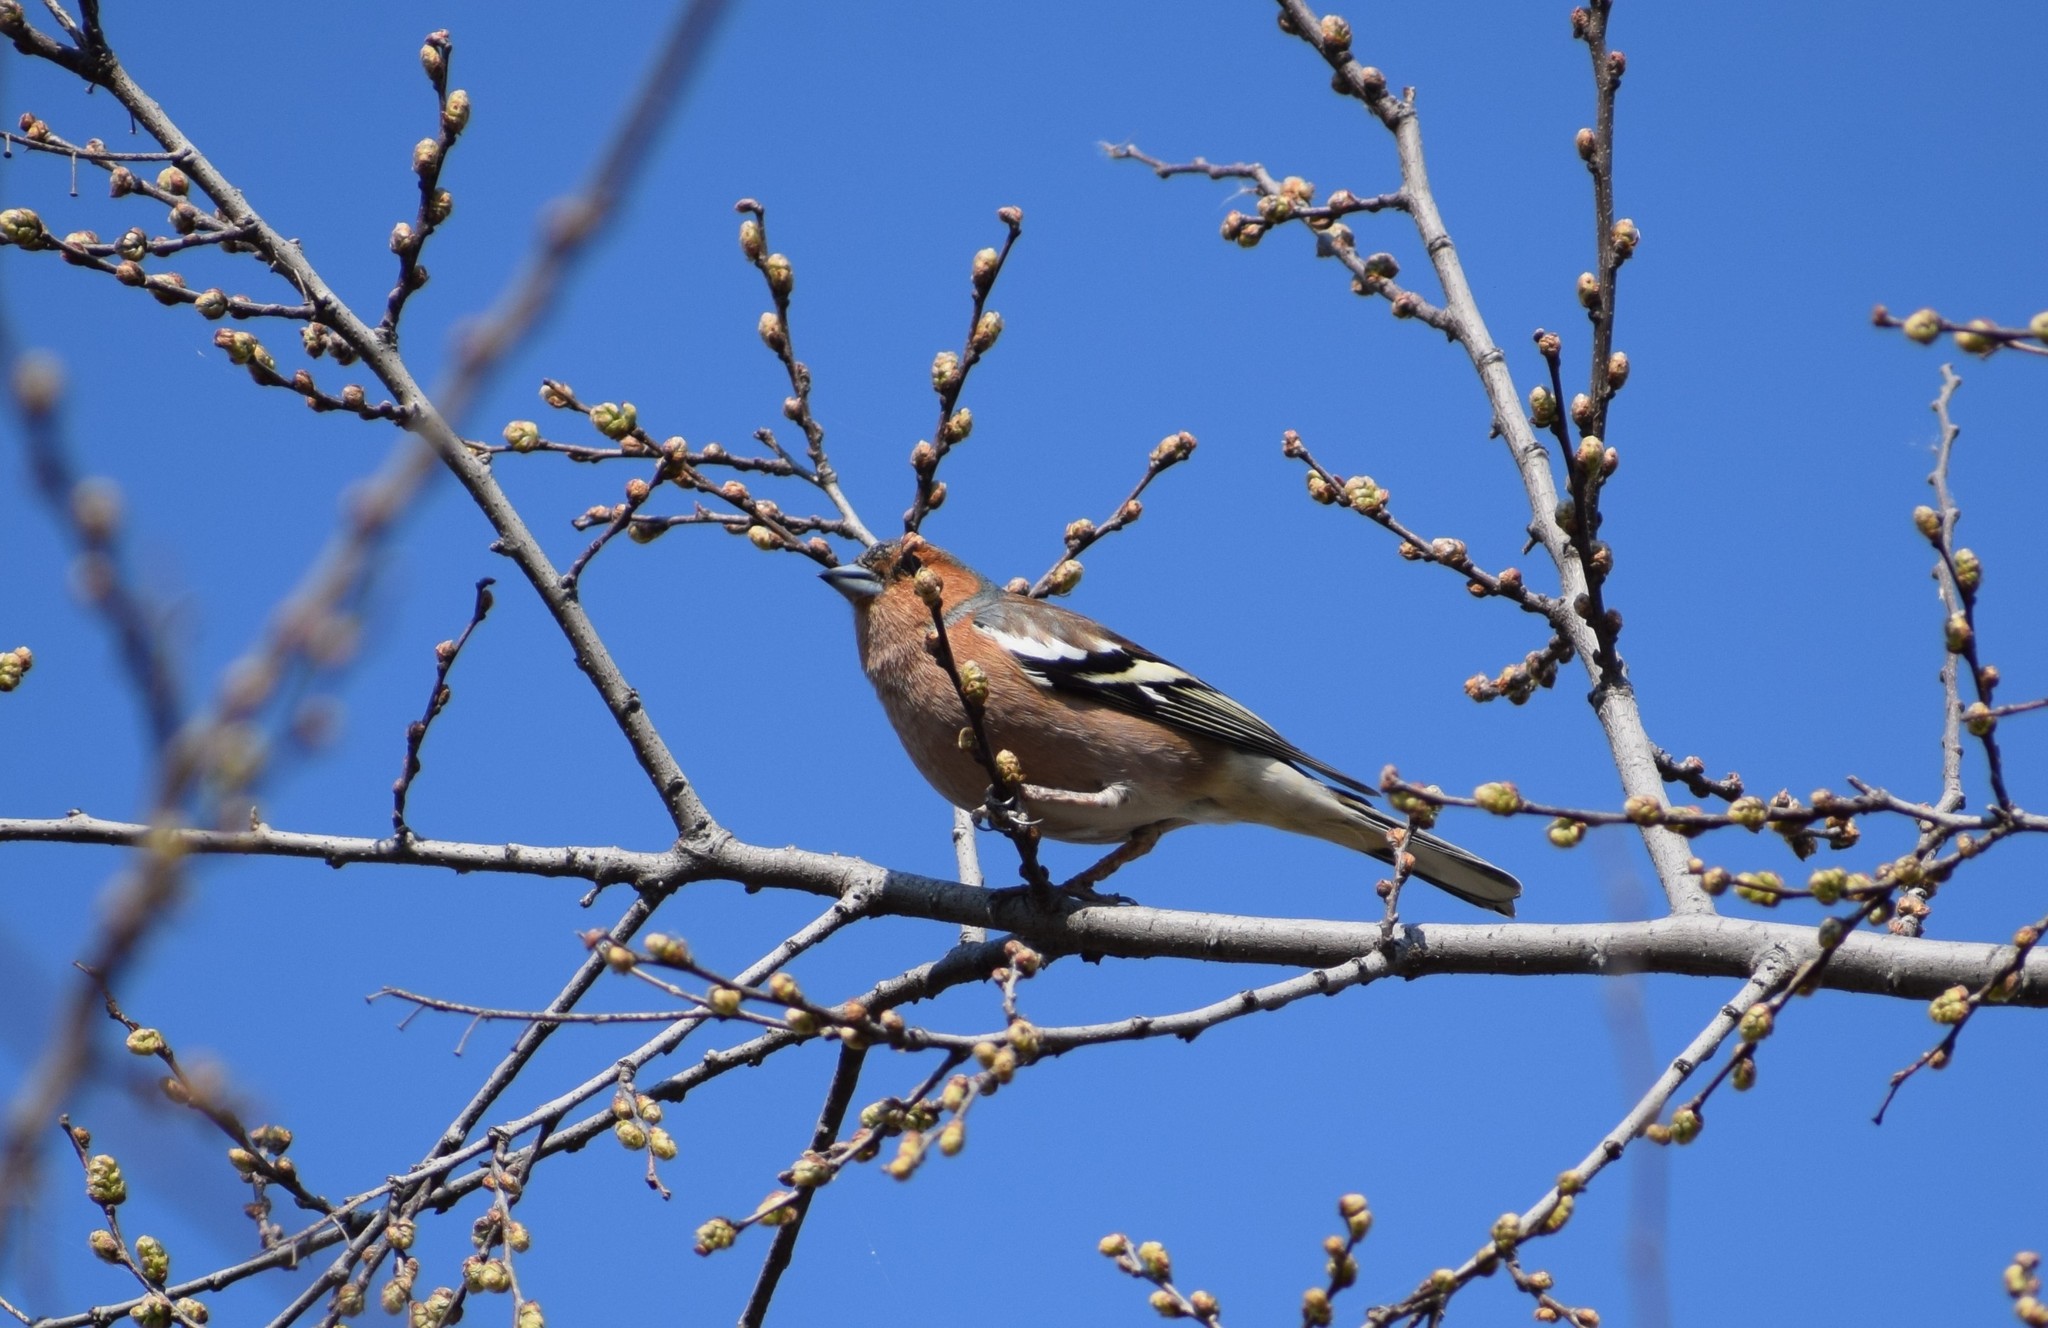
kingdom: Animalia
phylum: Chordata
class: Aves
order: Passeriformes
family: Fringillidae
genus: Fringilla
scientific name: Fringilla coelebs
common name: Common chaffinch
